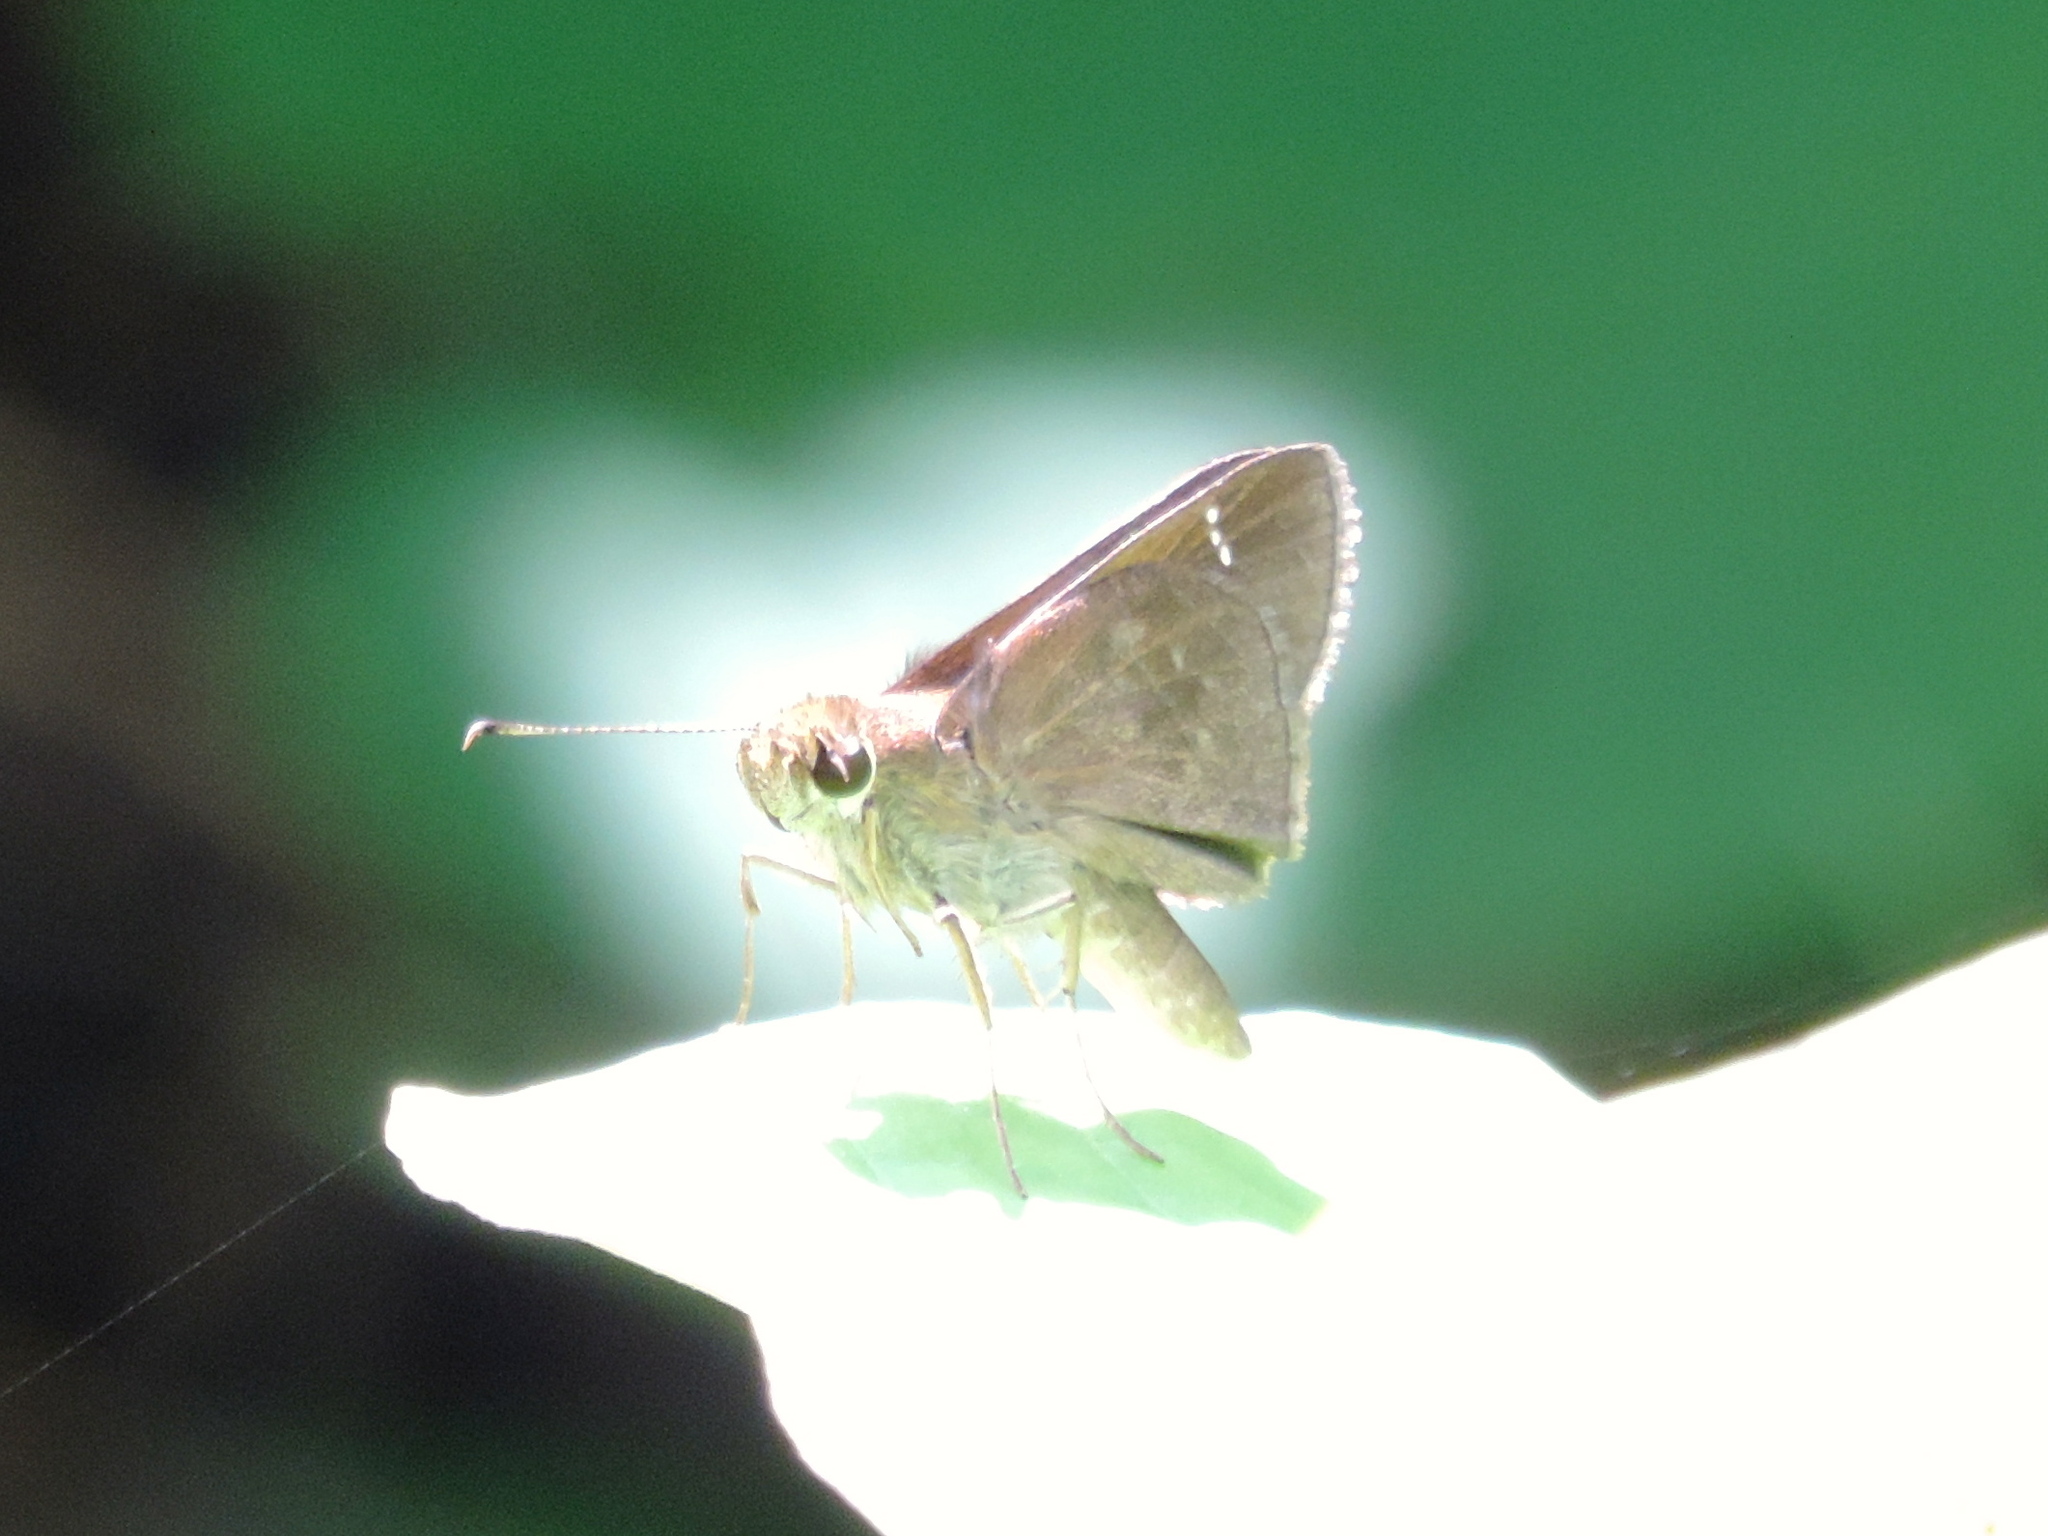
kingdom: Animalia
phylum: Arthropoda
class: Insecta
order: Lepidoptera
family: Hesperiidae
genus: Lerema
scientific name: Lerema accius
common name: Clouded skipper
